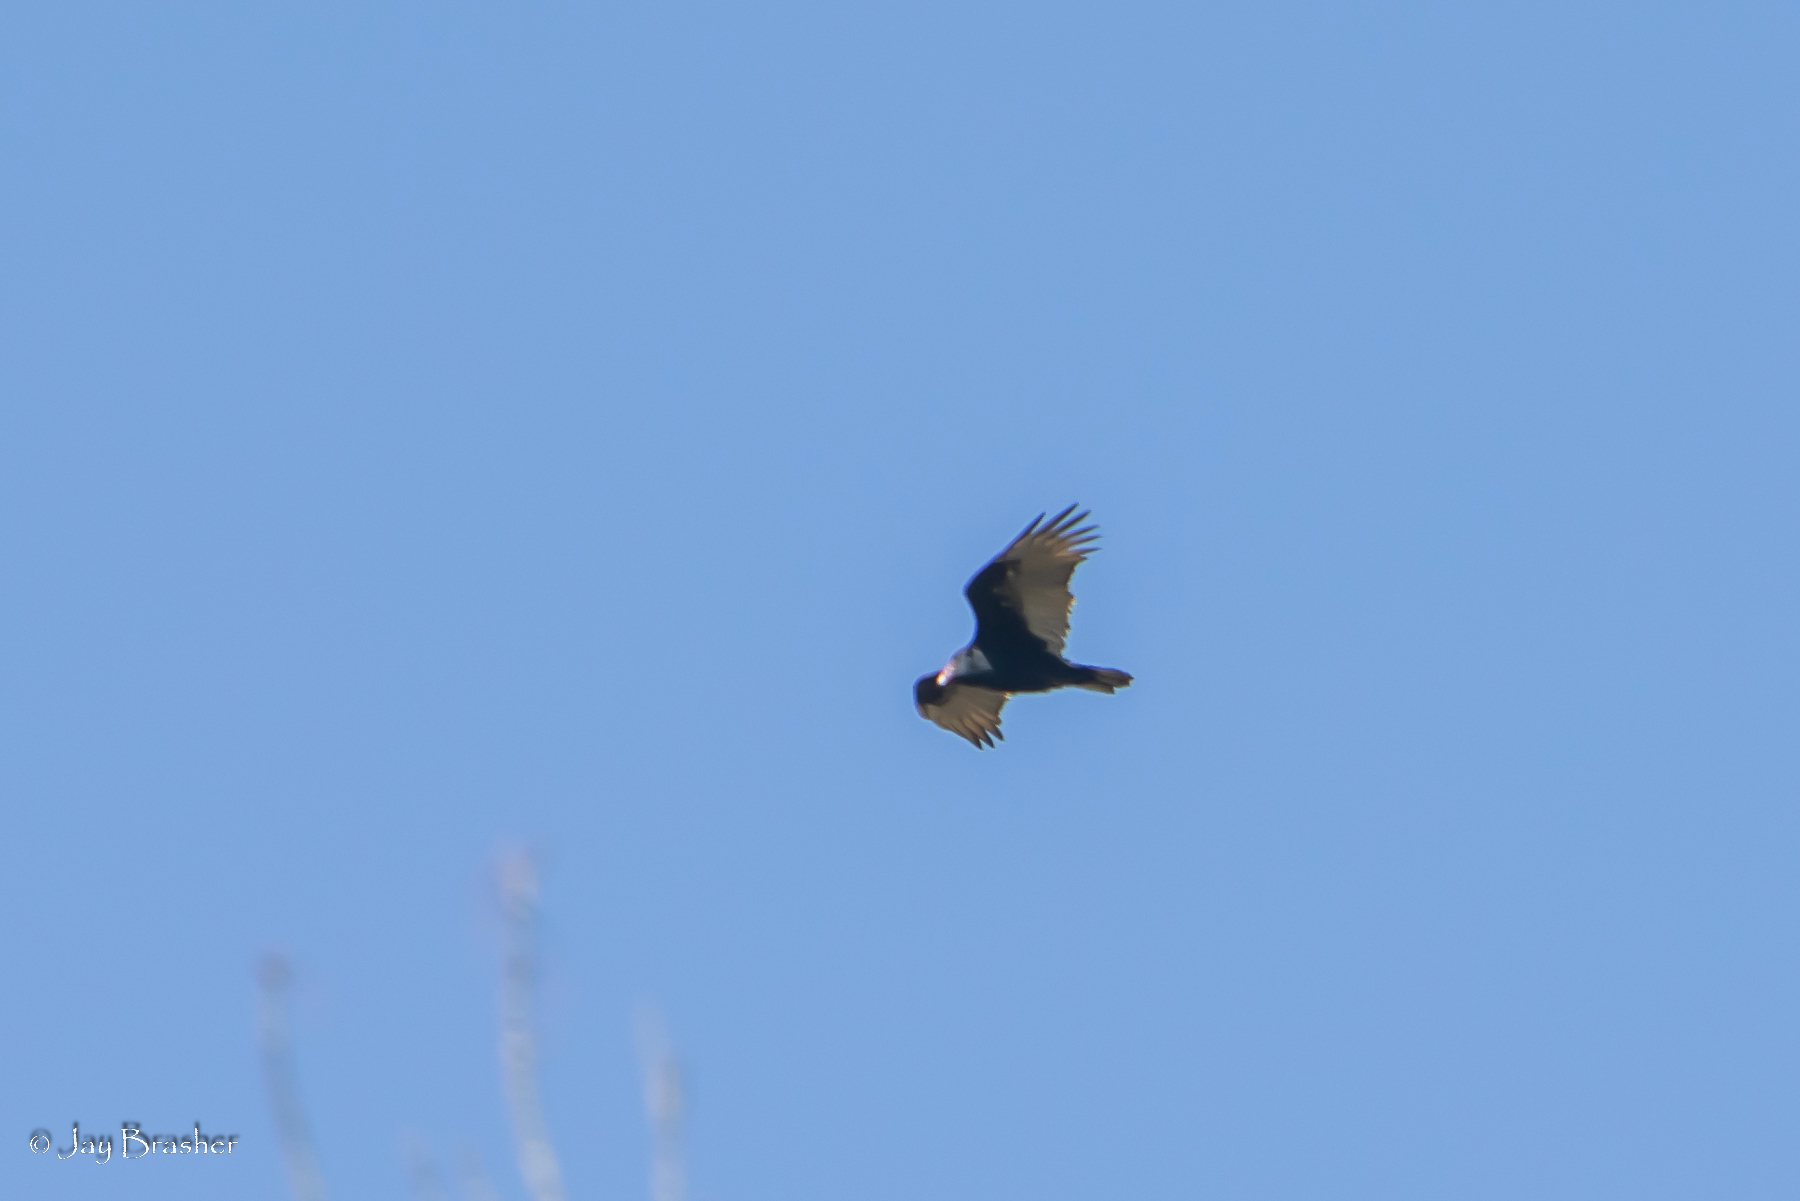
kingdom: Animalia
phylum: Chordata
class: Aves
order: Accipitriformes
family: Cathartidae
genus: Cathartes
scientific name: Cathartes aura
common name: Turkey vulture
